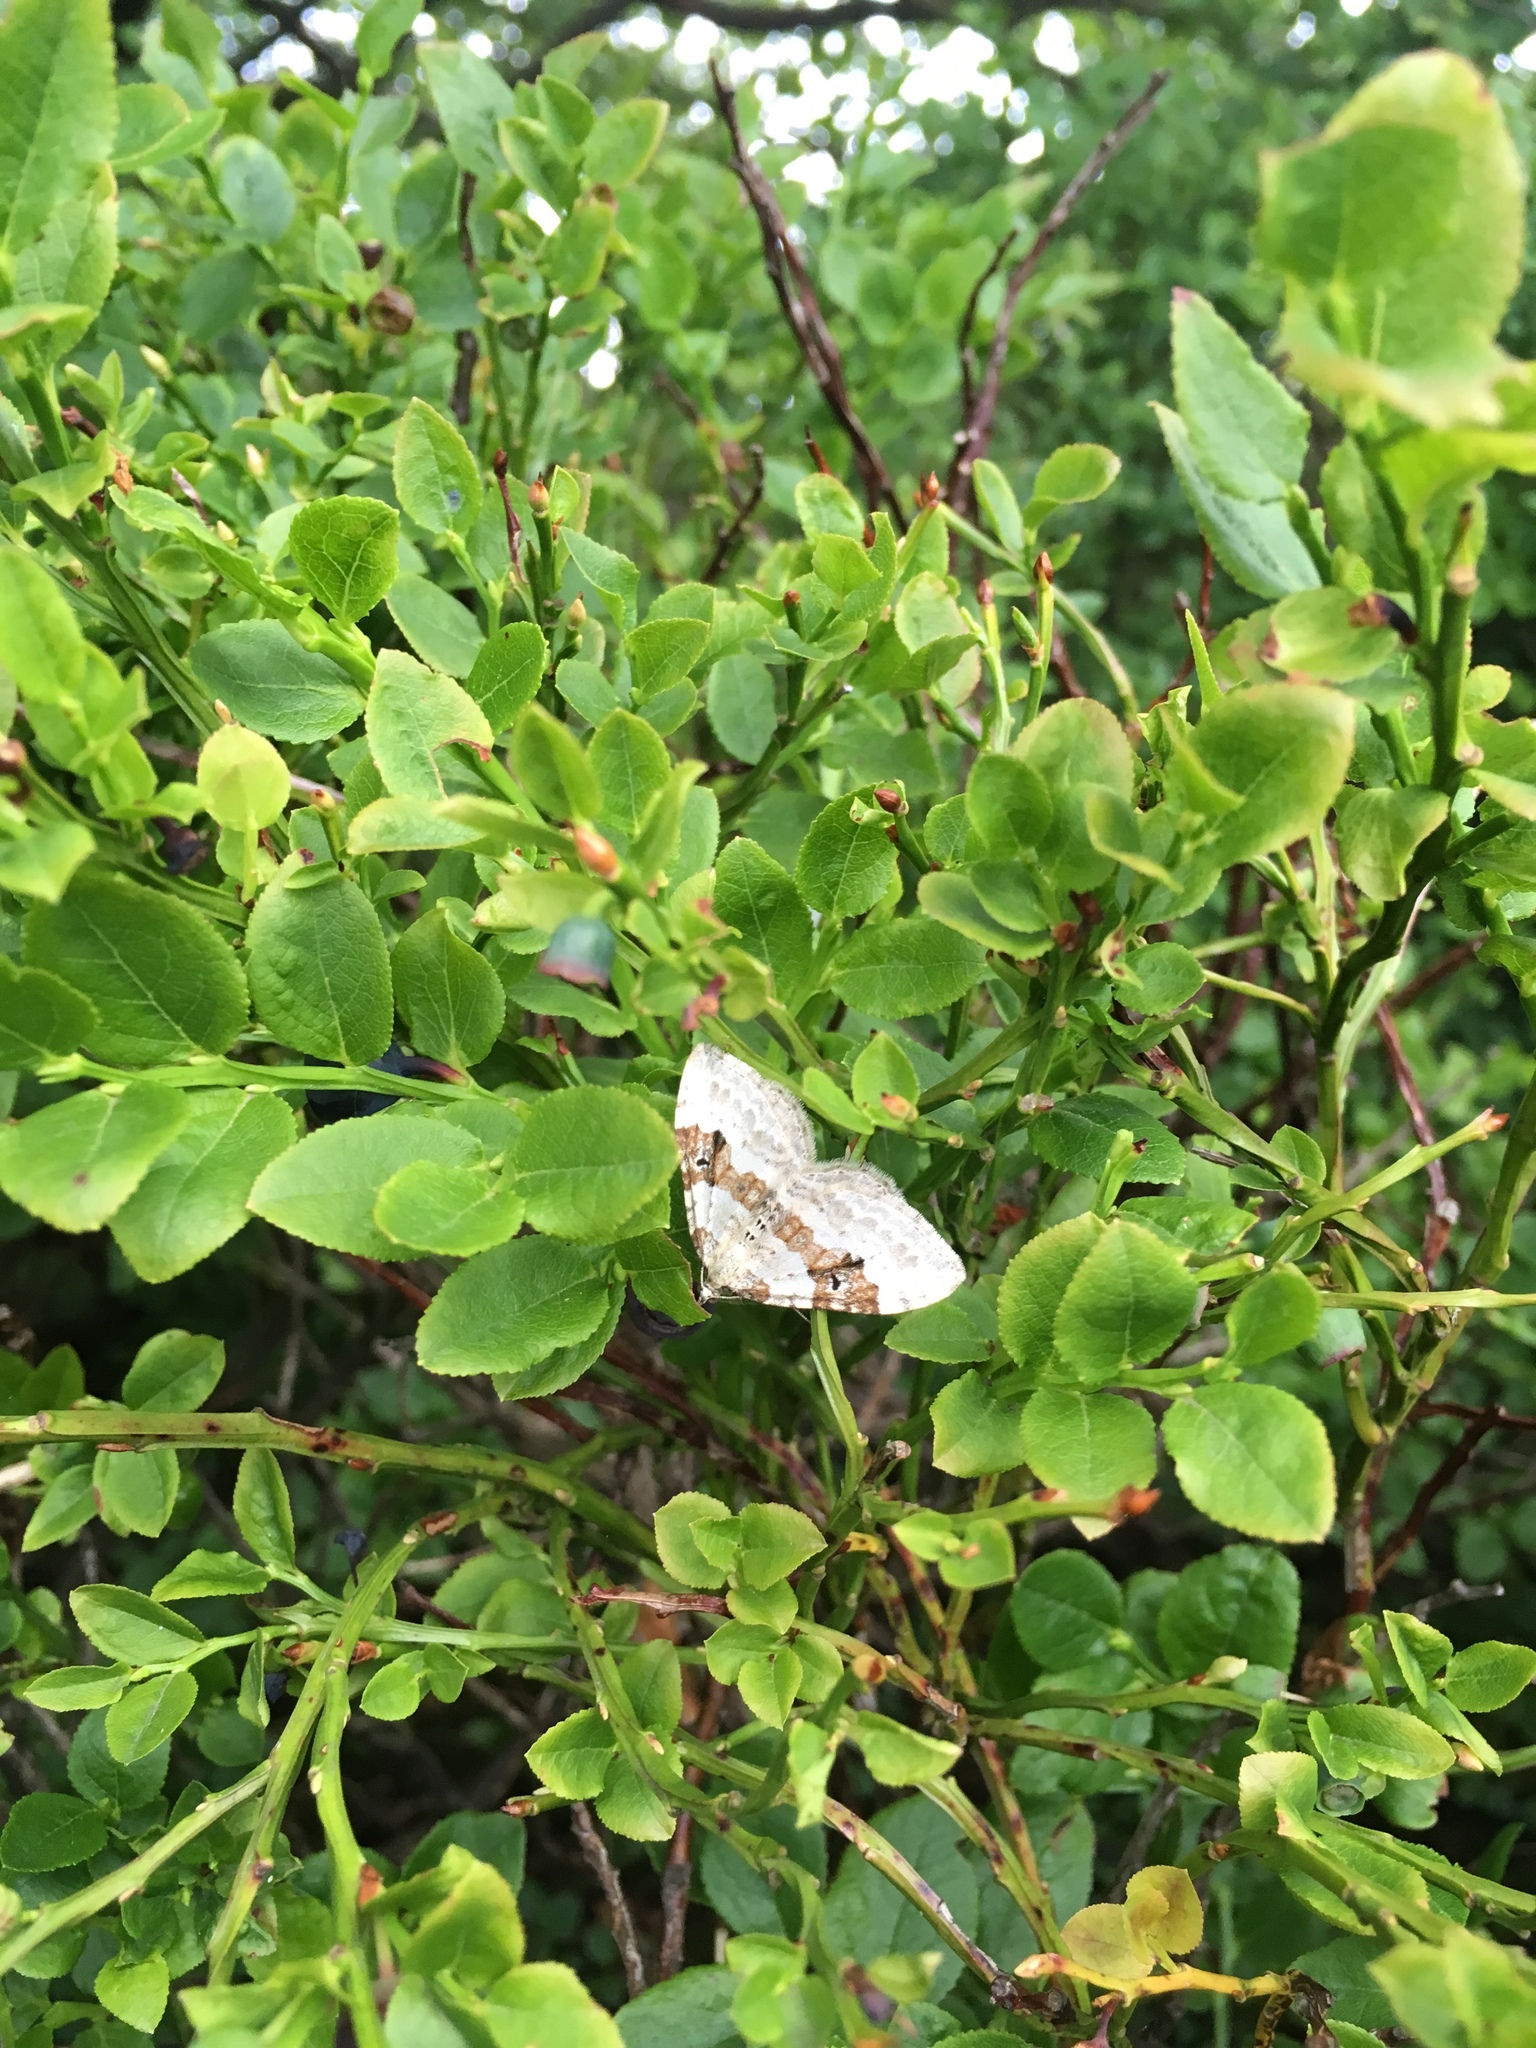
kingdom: Animalia
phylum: Arthropoda
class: Insecta
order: Lepidoptera
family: Geometridae
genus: Xanthorhoe
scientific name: Xanthorhoe montanata
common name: Silver-ground carpet
